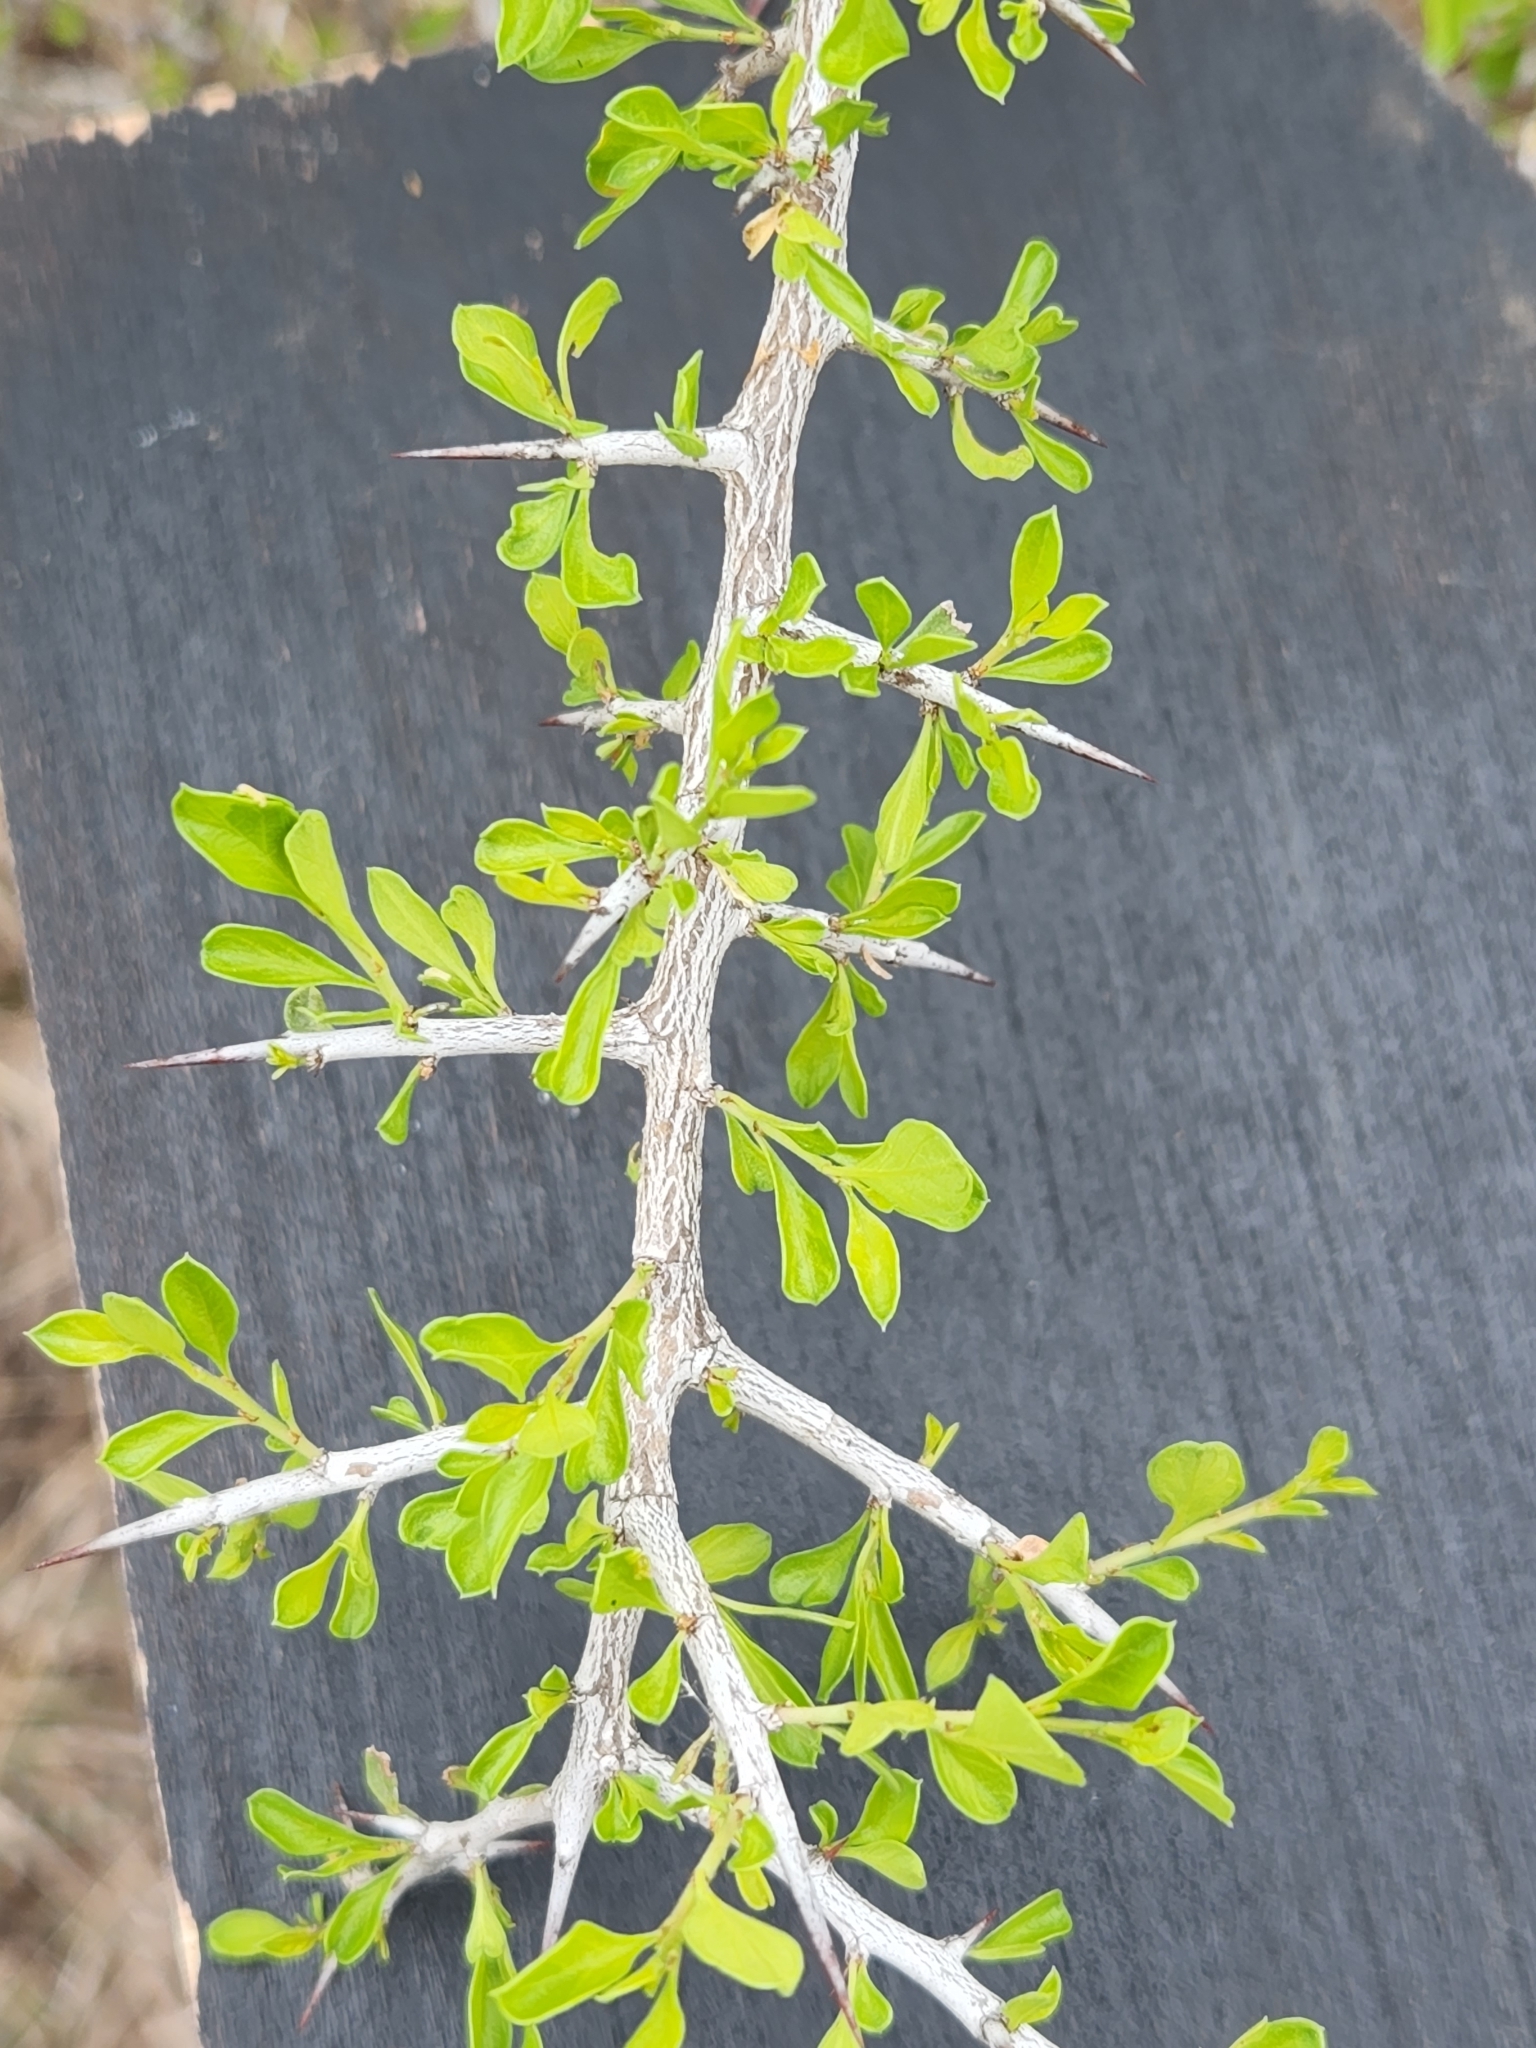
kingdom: Plantae
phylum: Tracheophyta
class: Magnoliopsida
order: Rosales
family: Rhamnaceae
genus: Condalia
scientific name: Condalia viridis
